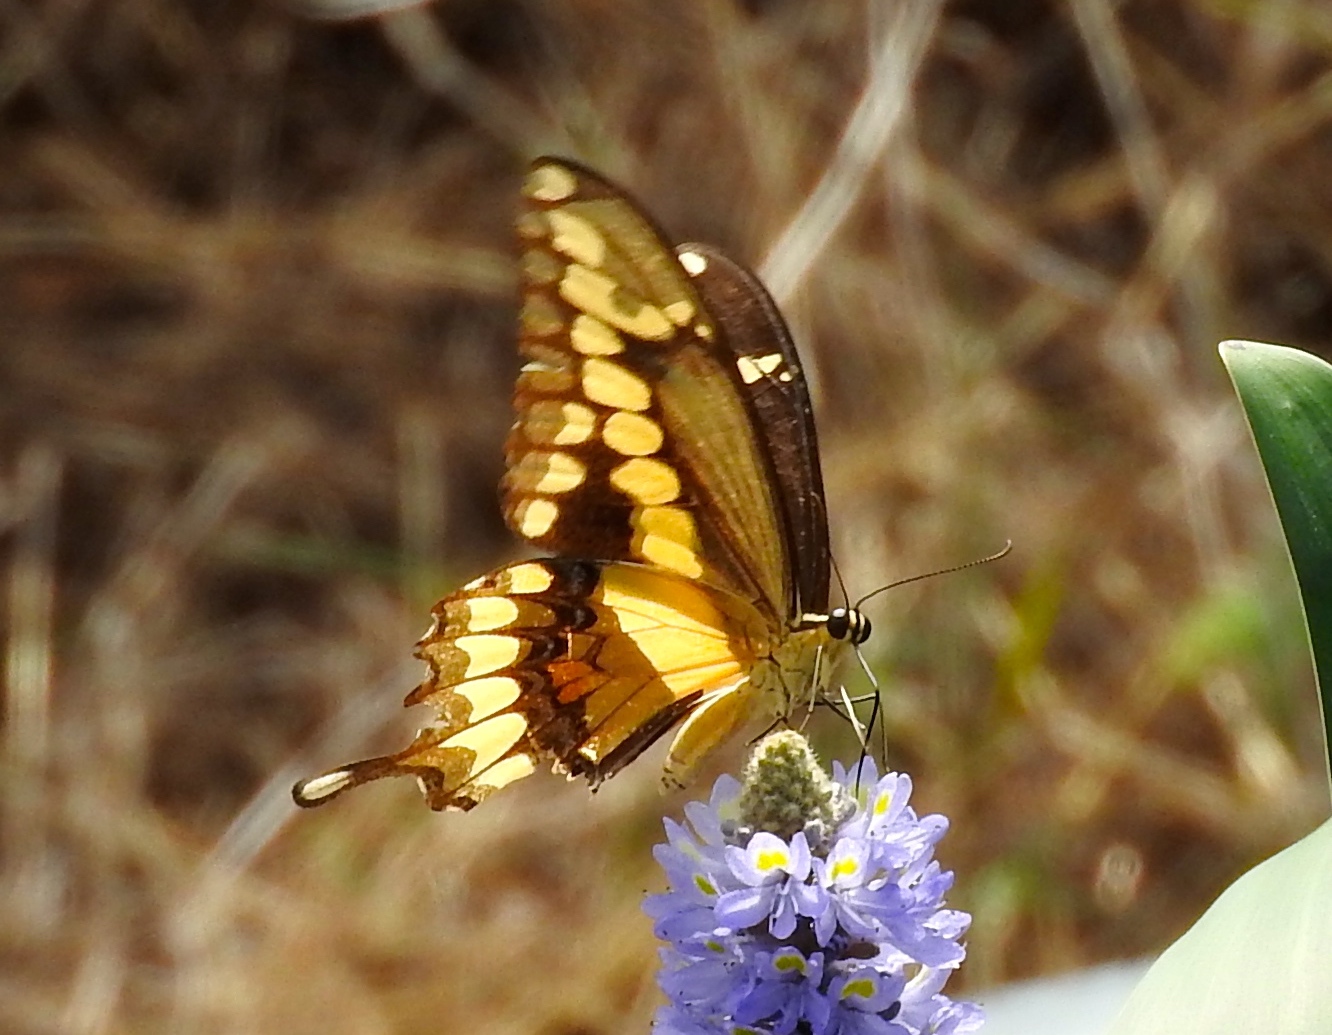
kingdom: Animalia
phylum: Arthropoda
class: Insecta
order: Lepidoptera
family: Papilionidae
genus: Papilio
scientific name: Papilio
